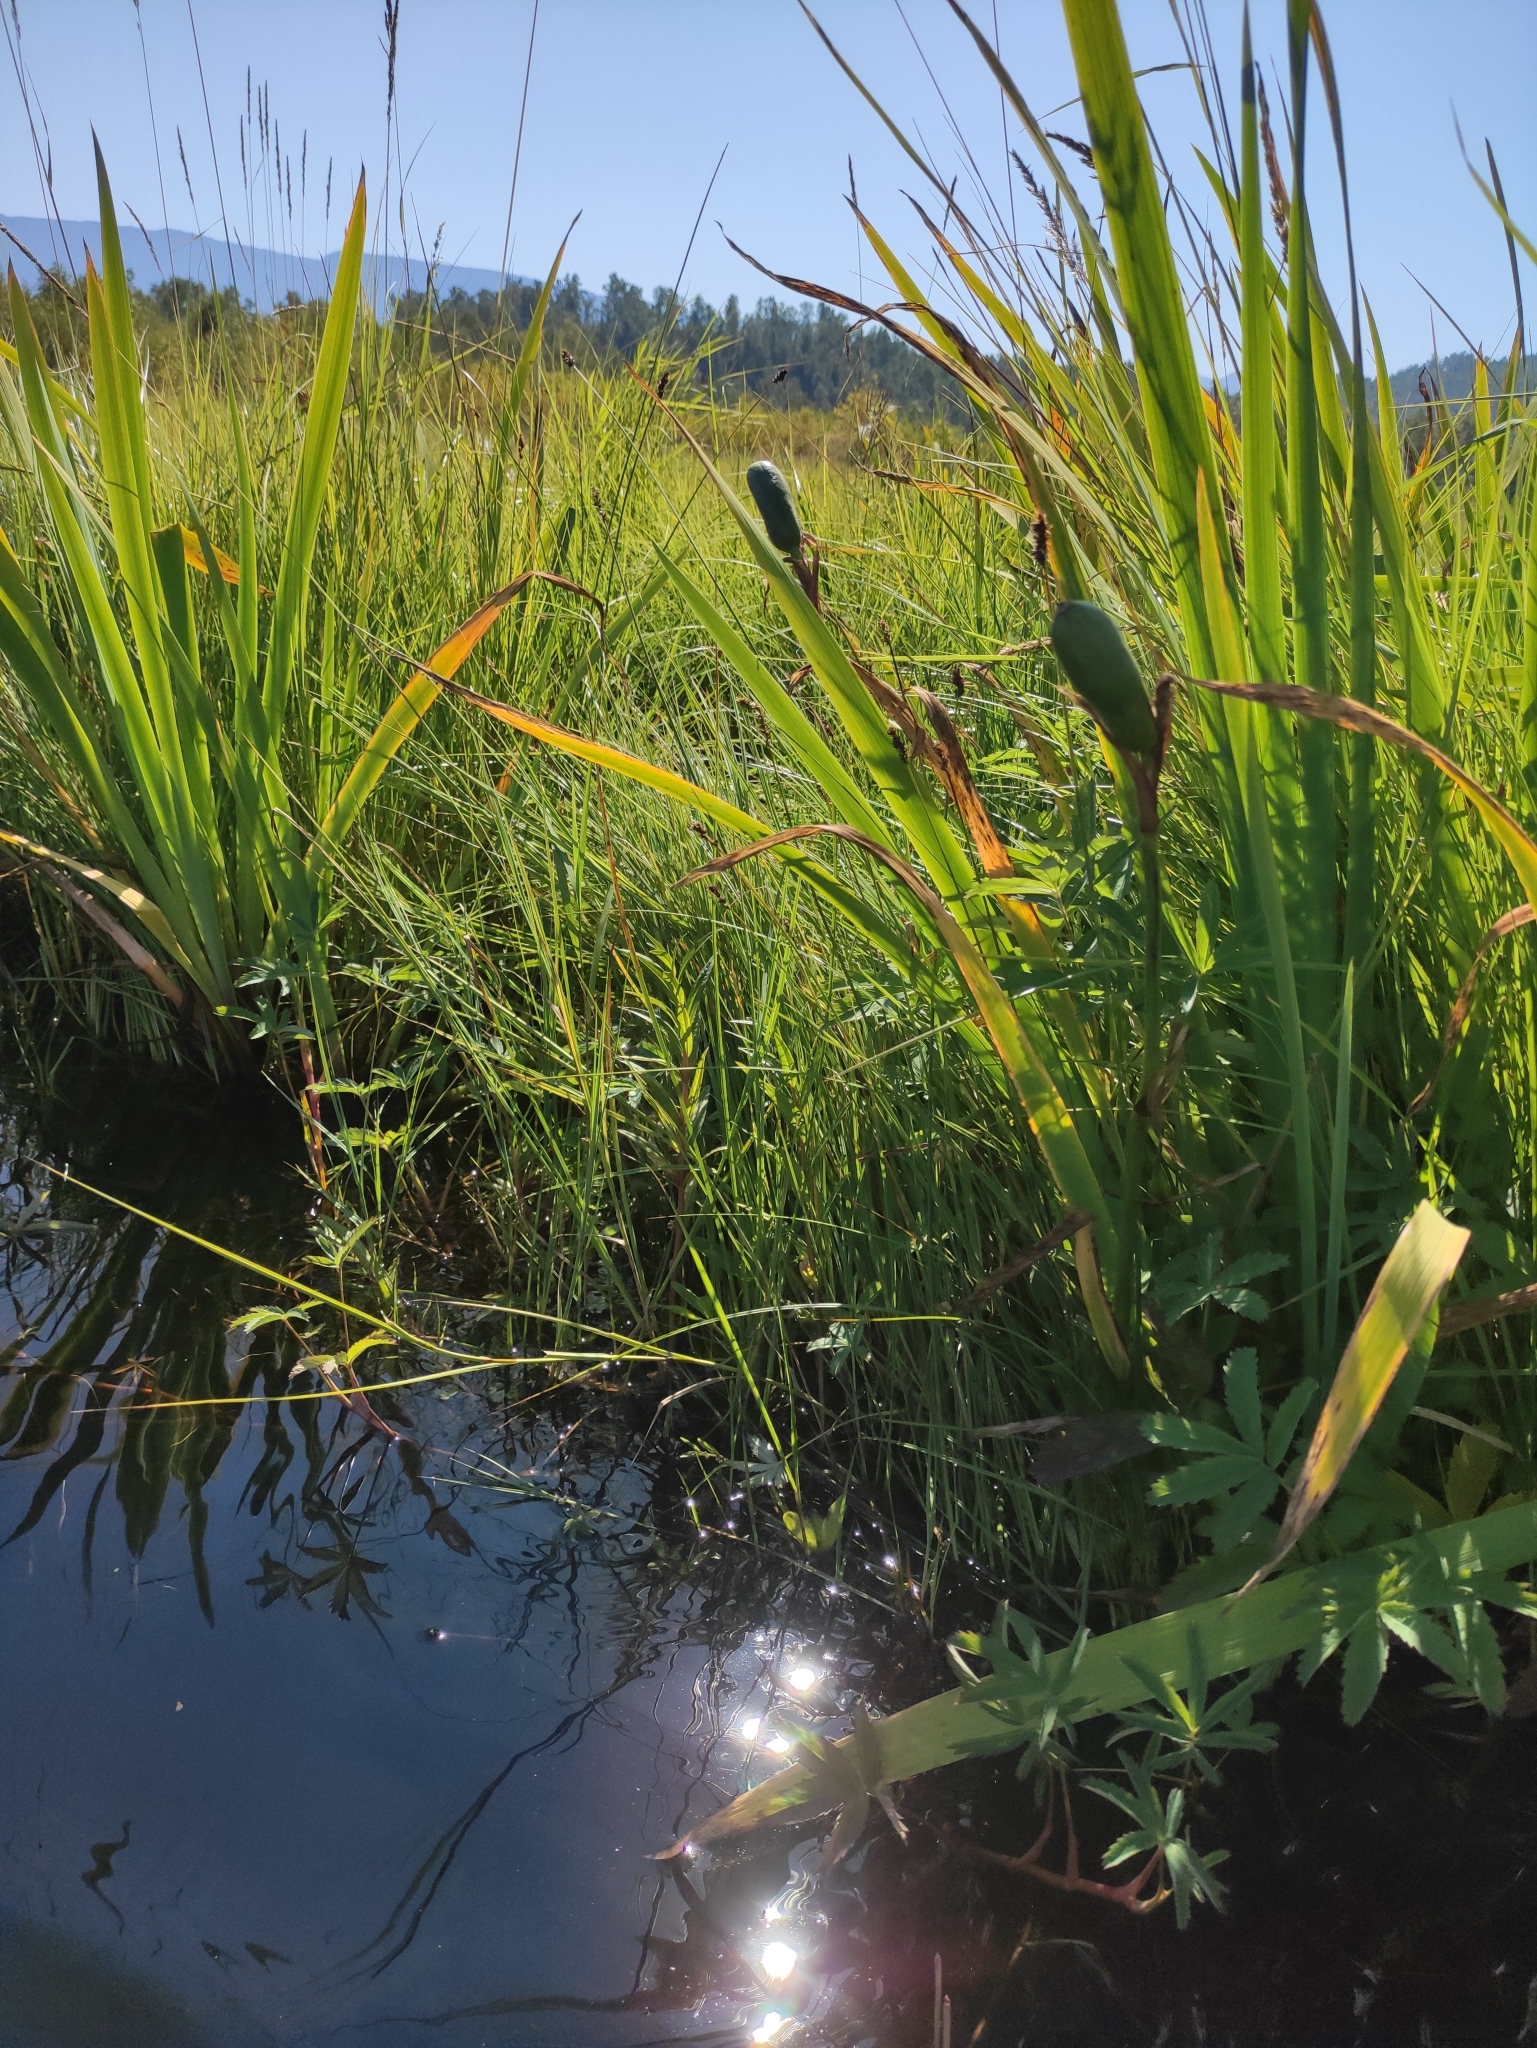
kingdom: Plantae
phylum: Tracheophyta
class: Liliopsida
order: Asparagales
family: Iridaceae
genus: Iris
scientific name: Iris laevigata
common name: Japanese iris
